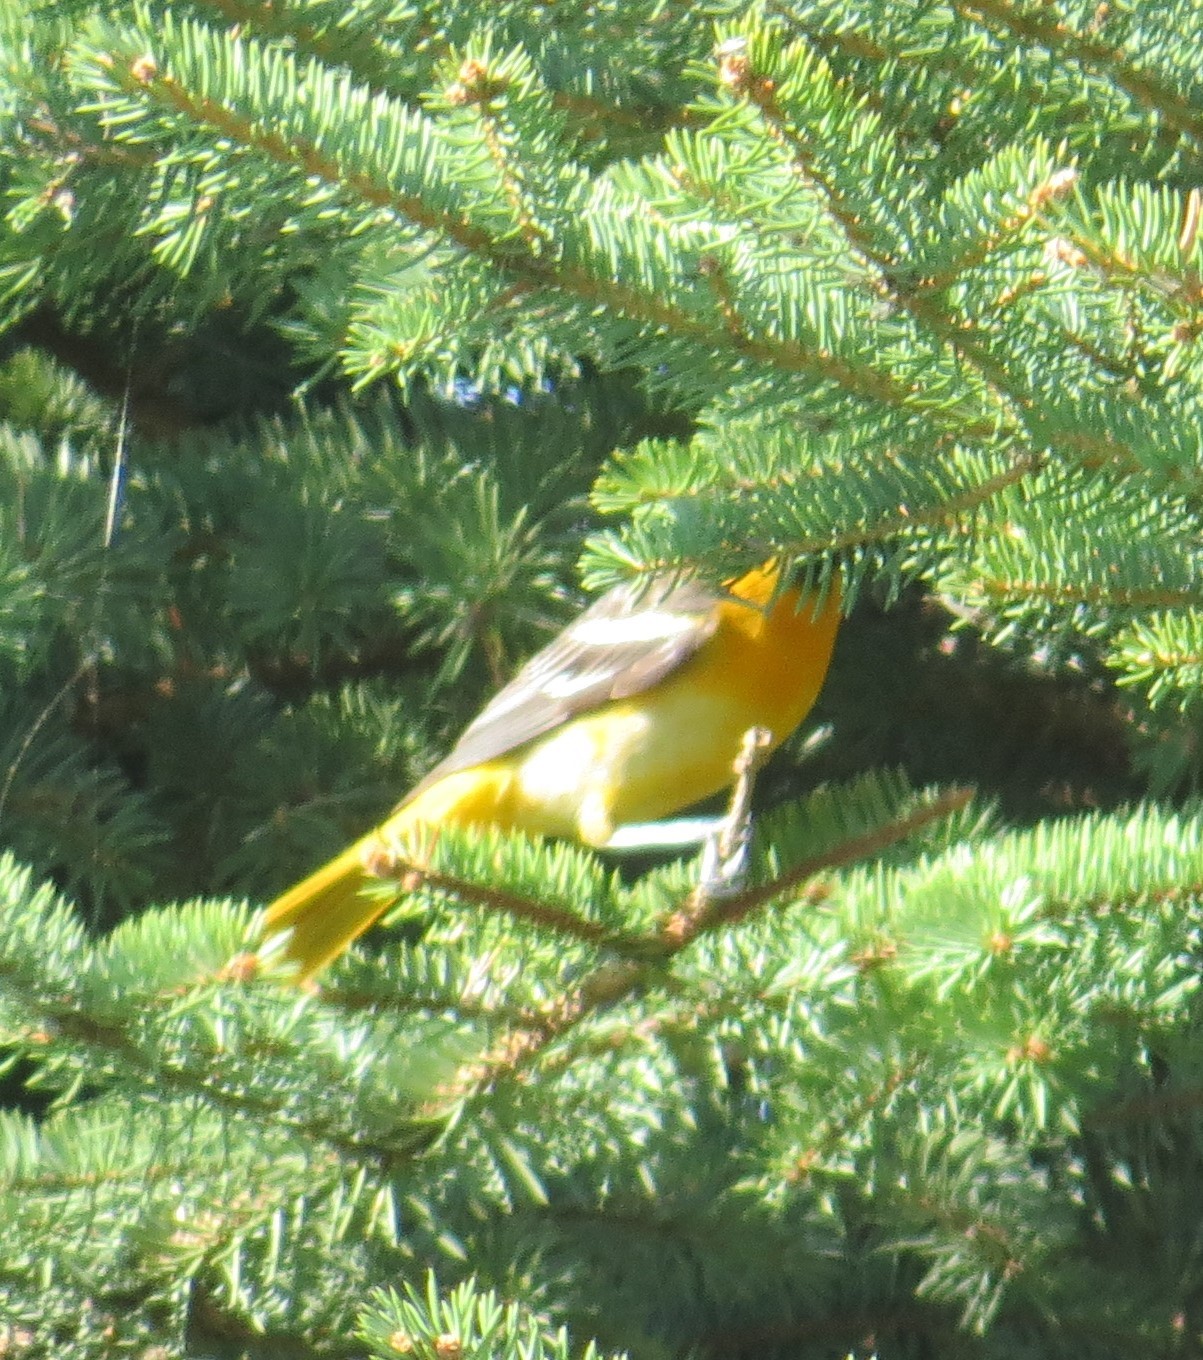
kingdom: Animalia
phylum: Chordata
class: Aves
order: Passeriformes
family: Icteridae
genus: Icterus
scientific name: Icterus galbula
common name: Baltimore oriole
